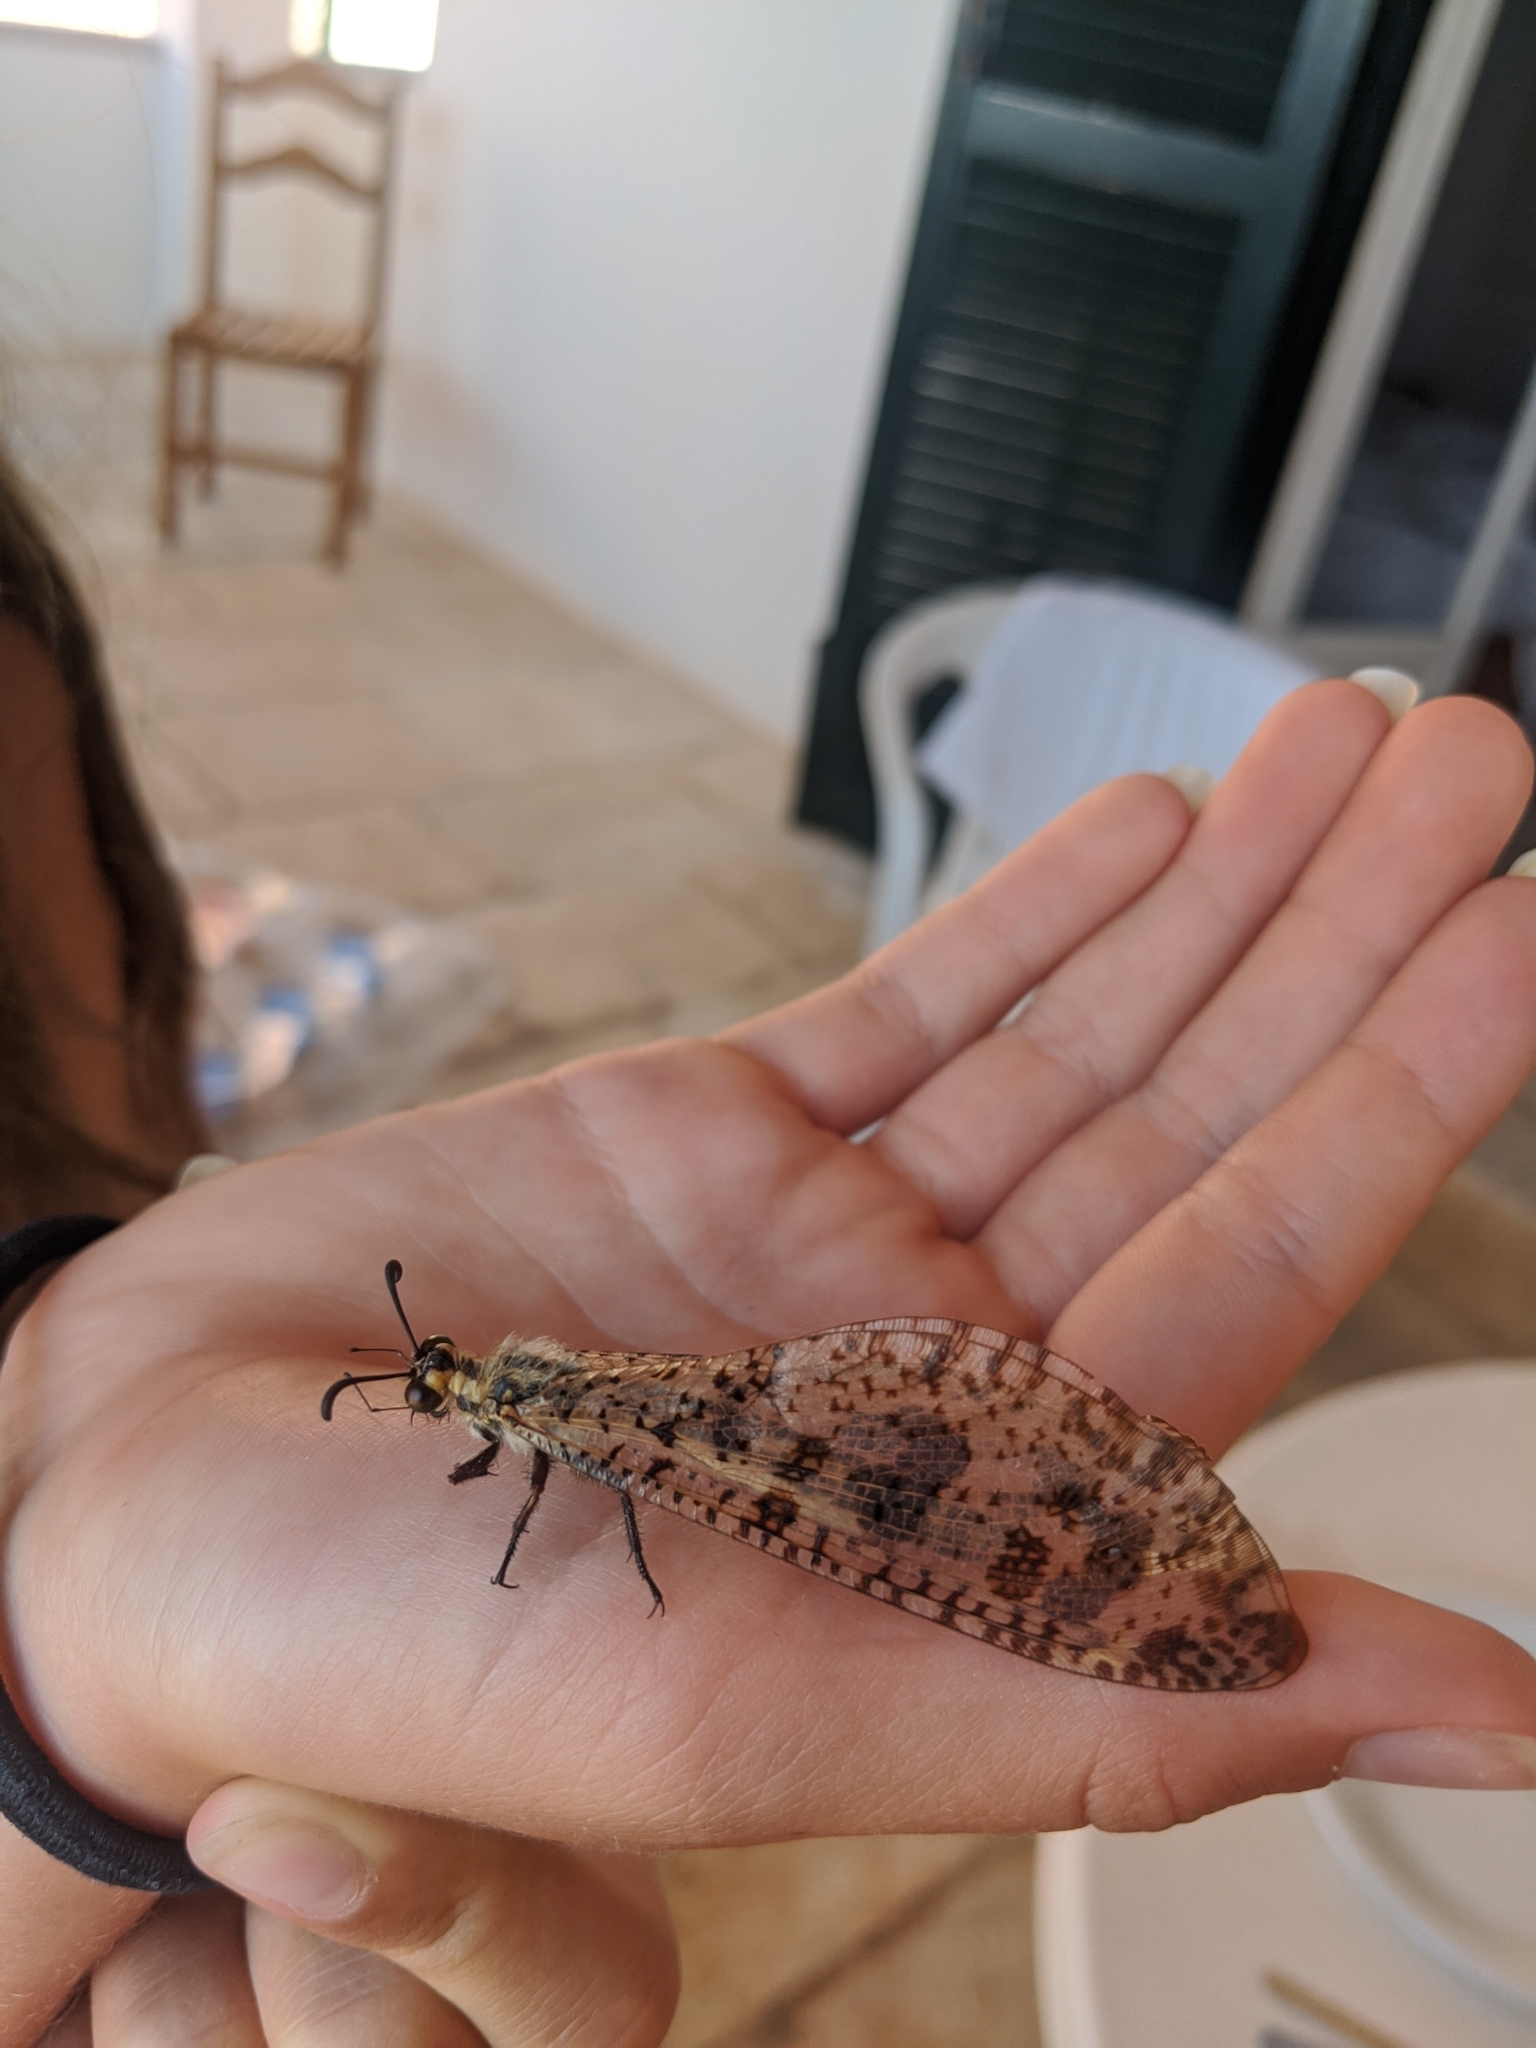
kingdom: Animalia
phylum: Arthropoda
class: Insecta
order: Neuroptera
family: Myrmeleontidae
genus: Palpares
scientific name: Palpares libelluloides
